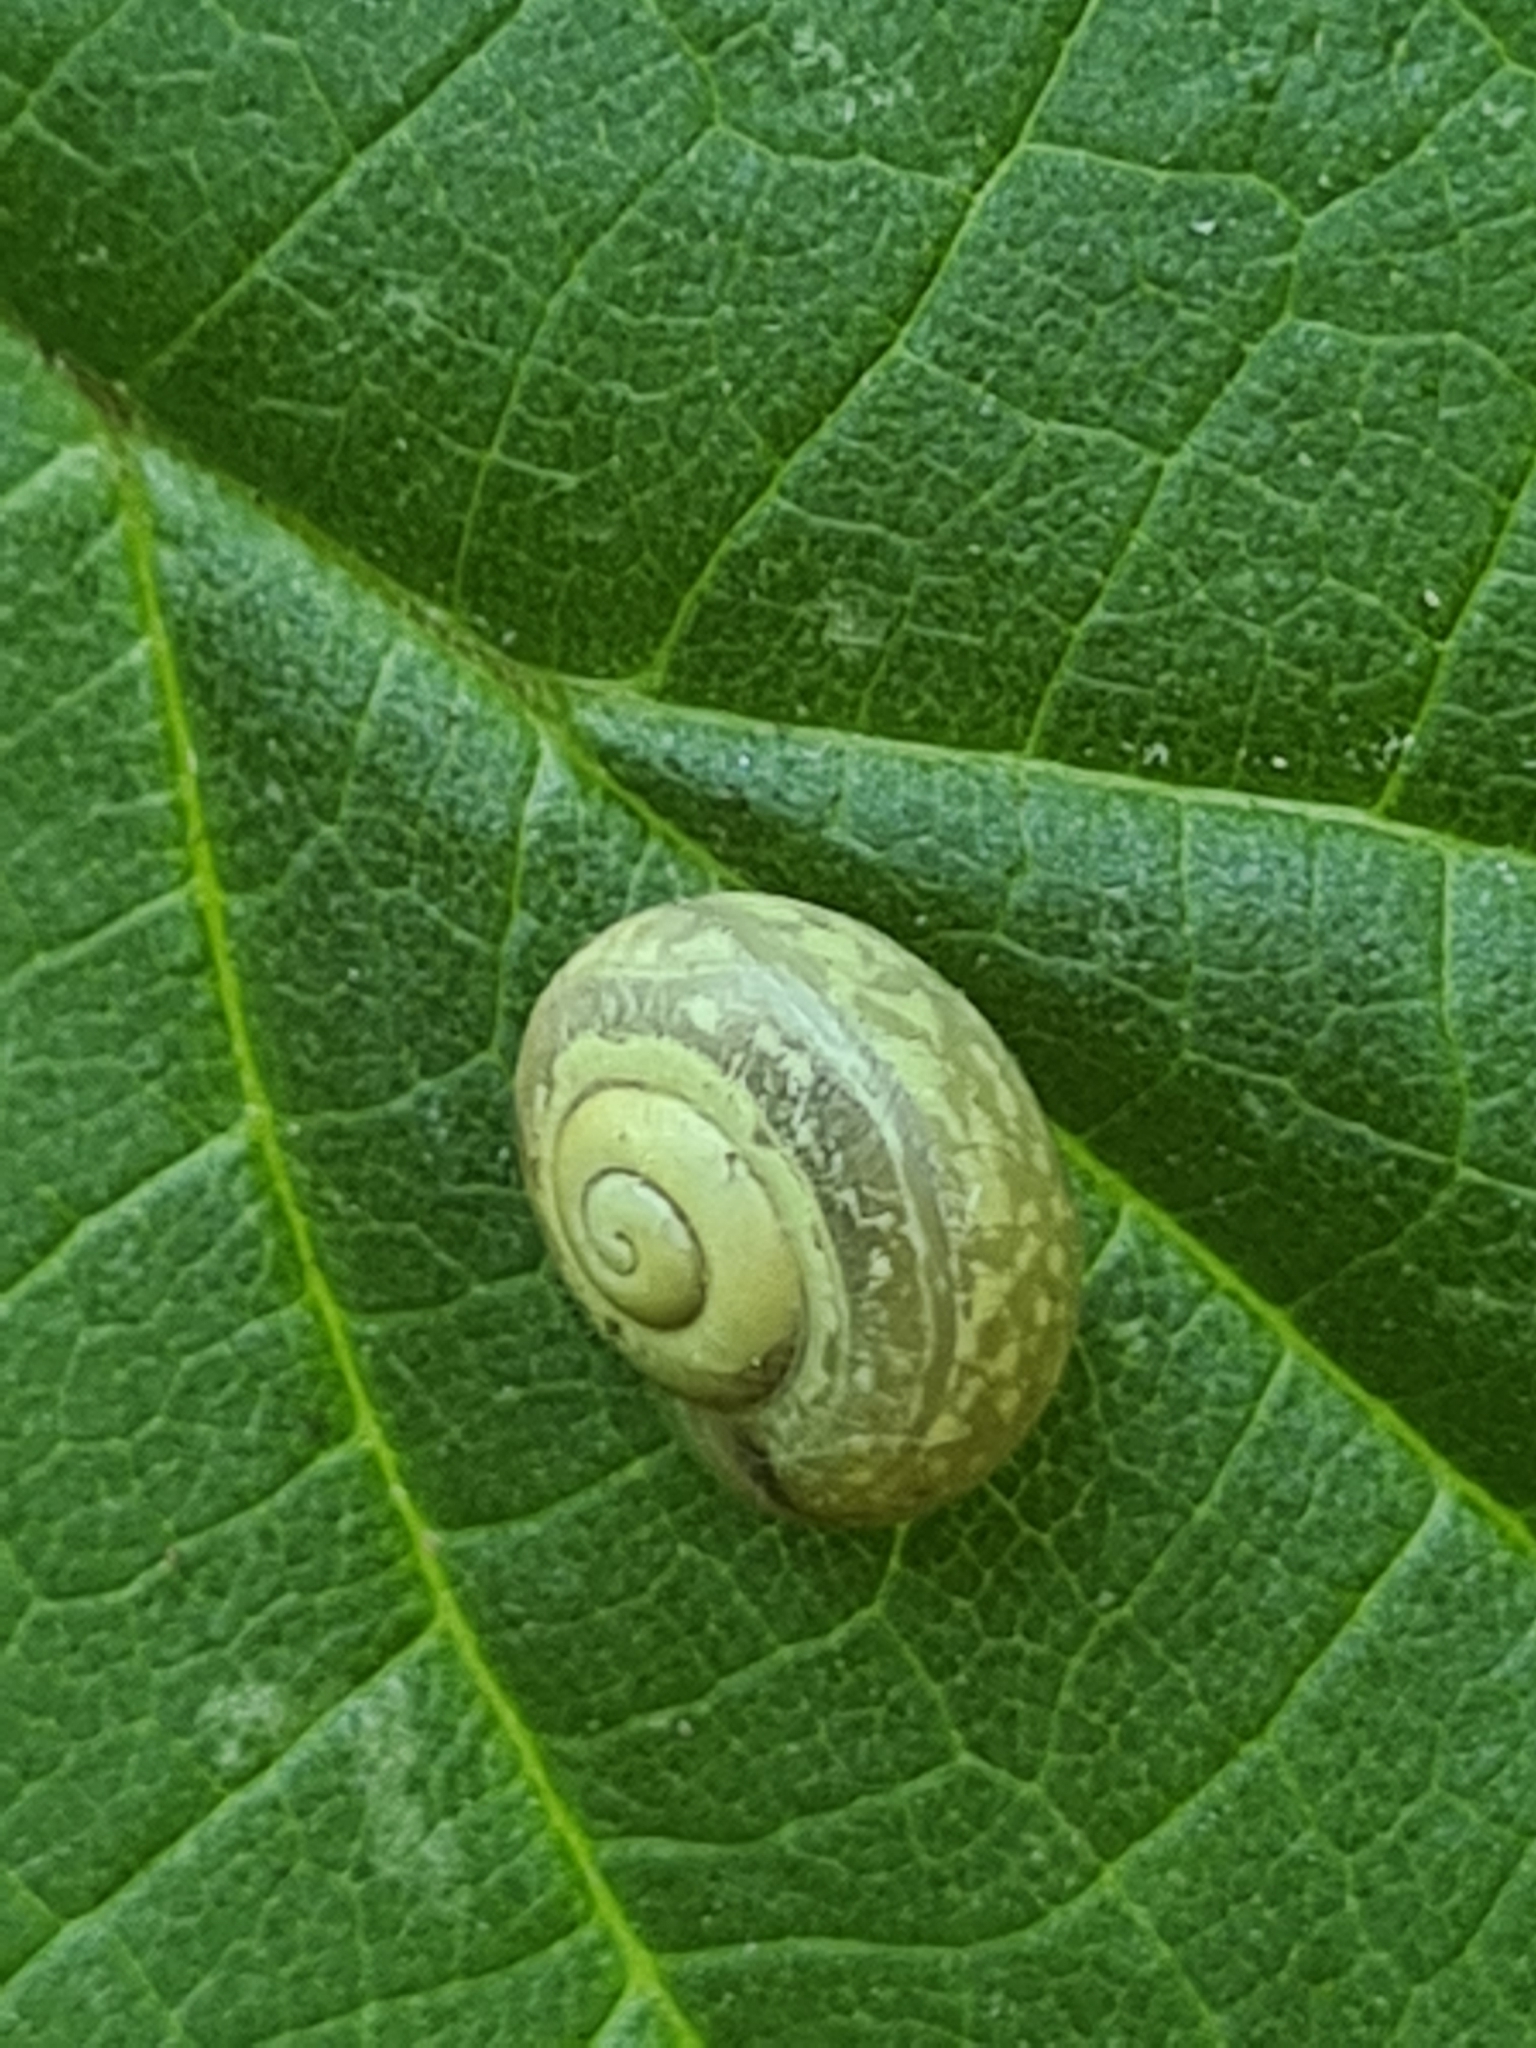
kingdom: Animalia
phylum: Mollusca
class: Gastropoda
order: Stylommatophora
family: Camaenidae
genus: Fruticicola
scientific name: Fruticicola fruticum
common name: Bush snail
